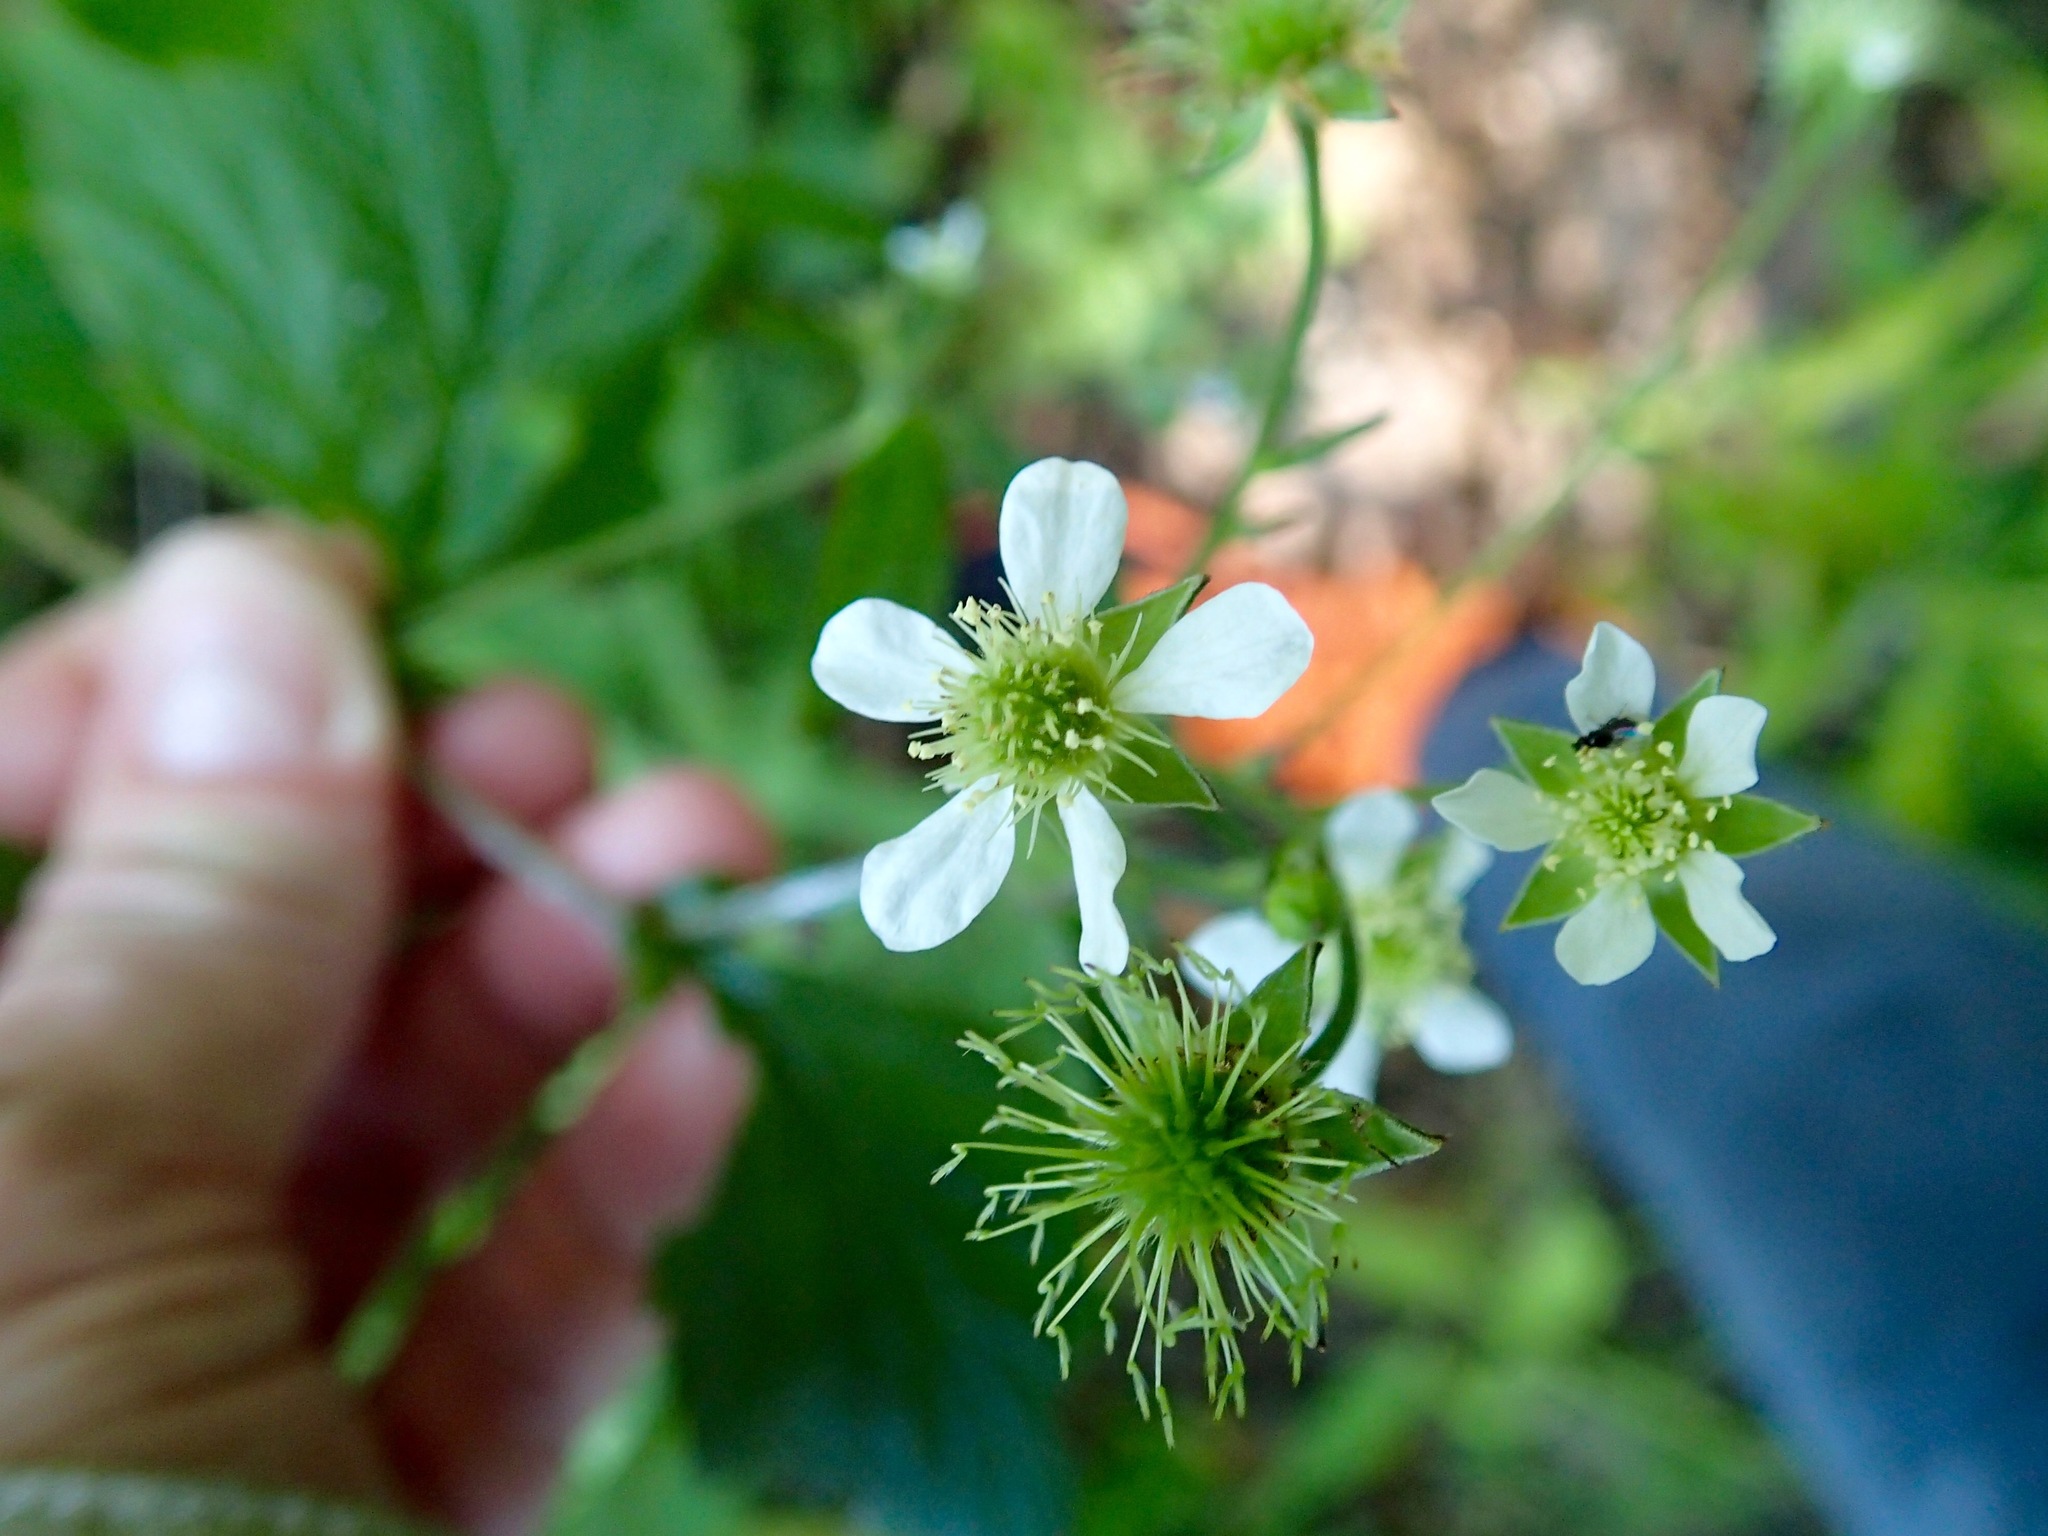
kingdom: Plantae
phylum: Tracheophyta
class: Magnoliopsida
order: Rosales
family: Rosaceae
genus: Geum
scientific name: Geum canadense
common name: White avens
